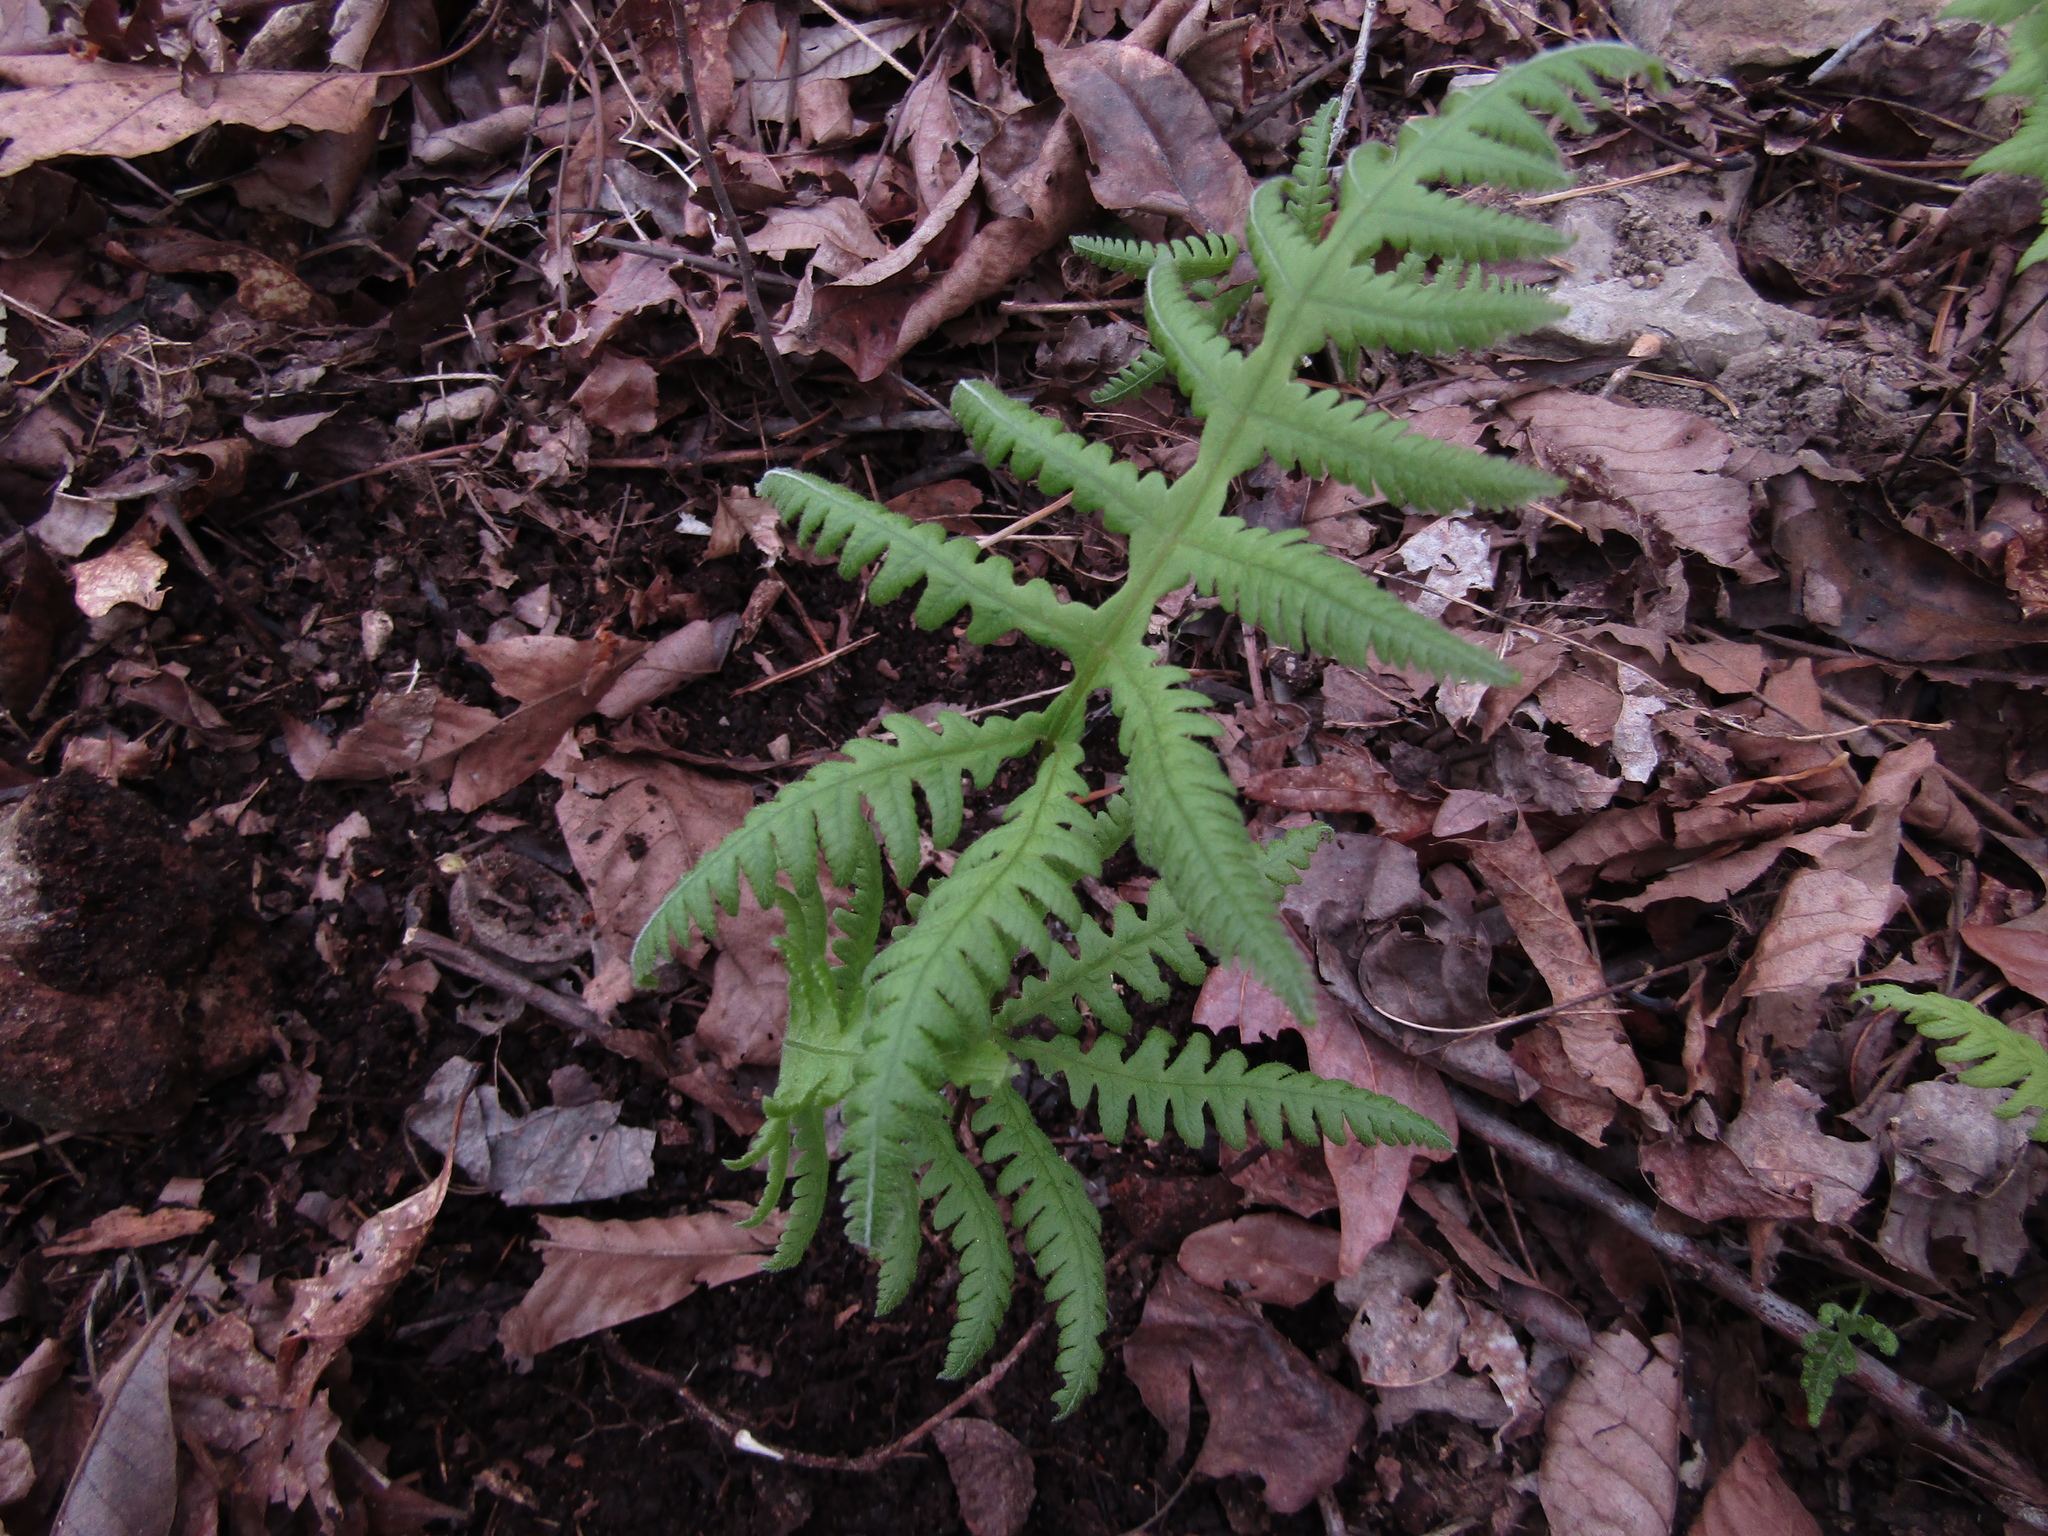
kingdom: Plantae
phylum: Tracheophyta
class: Polypodiopsida
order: Polypodiales
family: Thelypteridaceae
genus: Phegopteris
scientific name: Phegopteris hexagonoptera
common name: Broad beech fern
